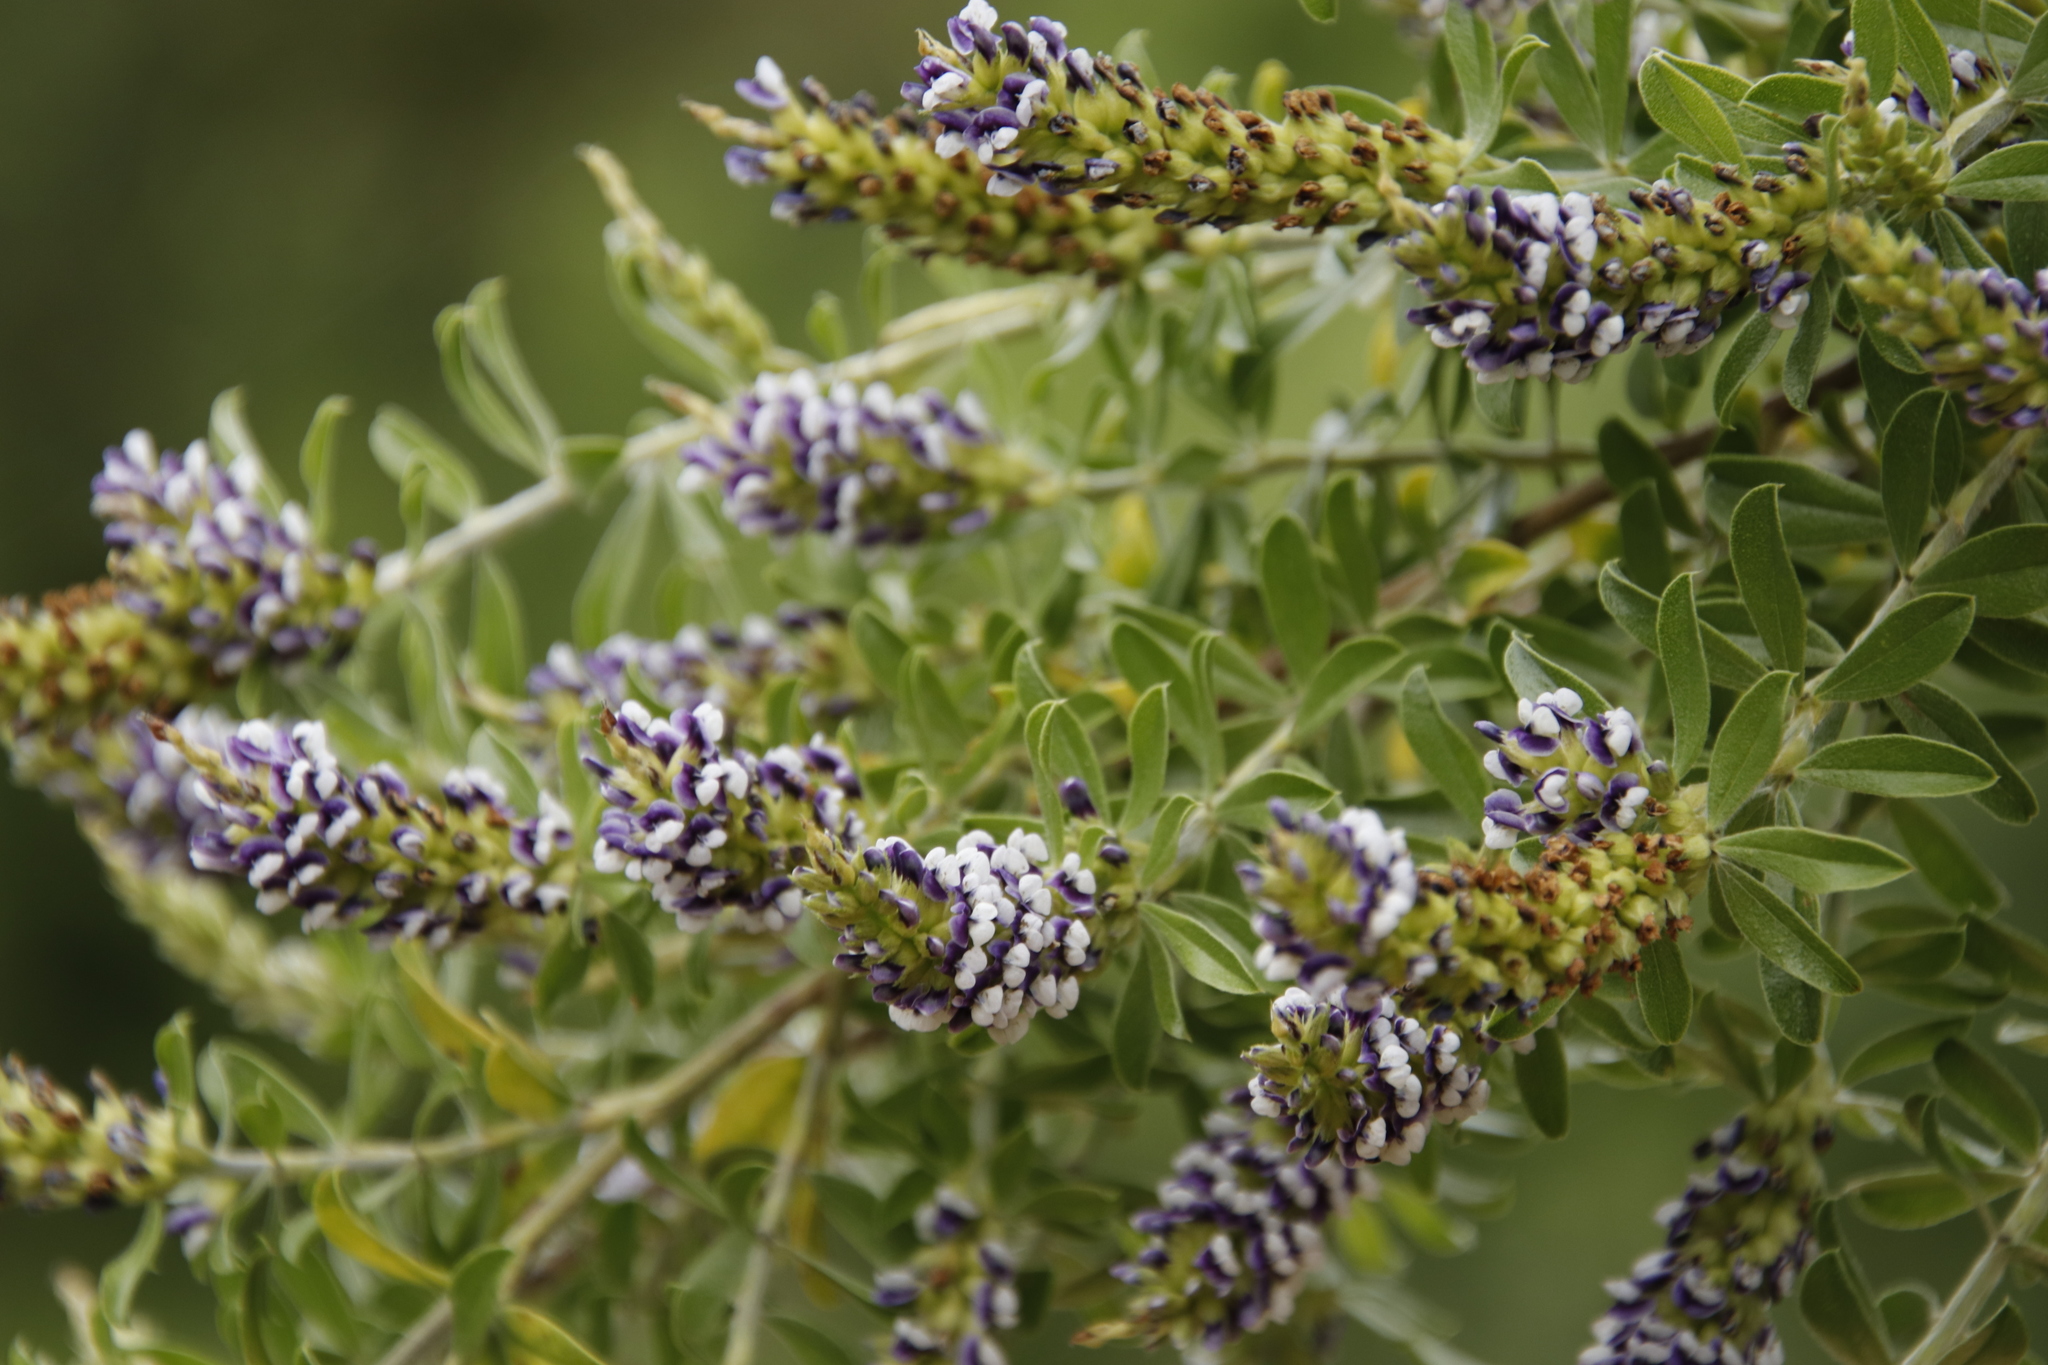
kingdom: Plantae
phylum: Tracheophyta
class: Magnoliopsida
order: Fabales
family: Fabaceae
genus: Psoralea
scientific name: Psoralea spicata
